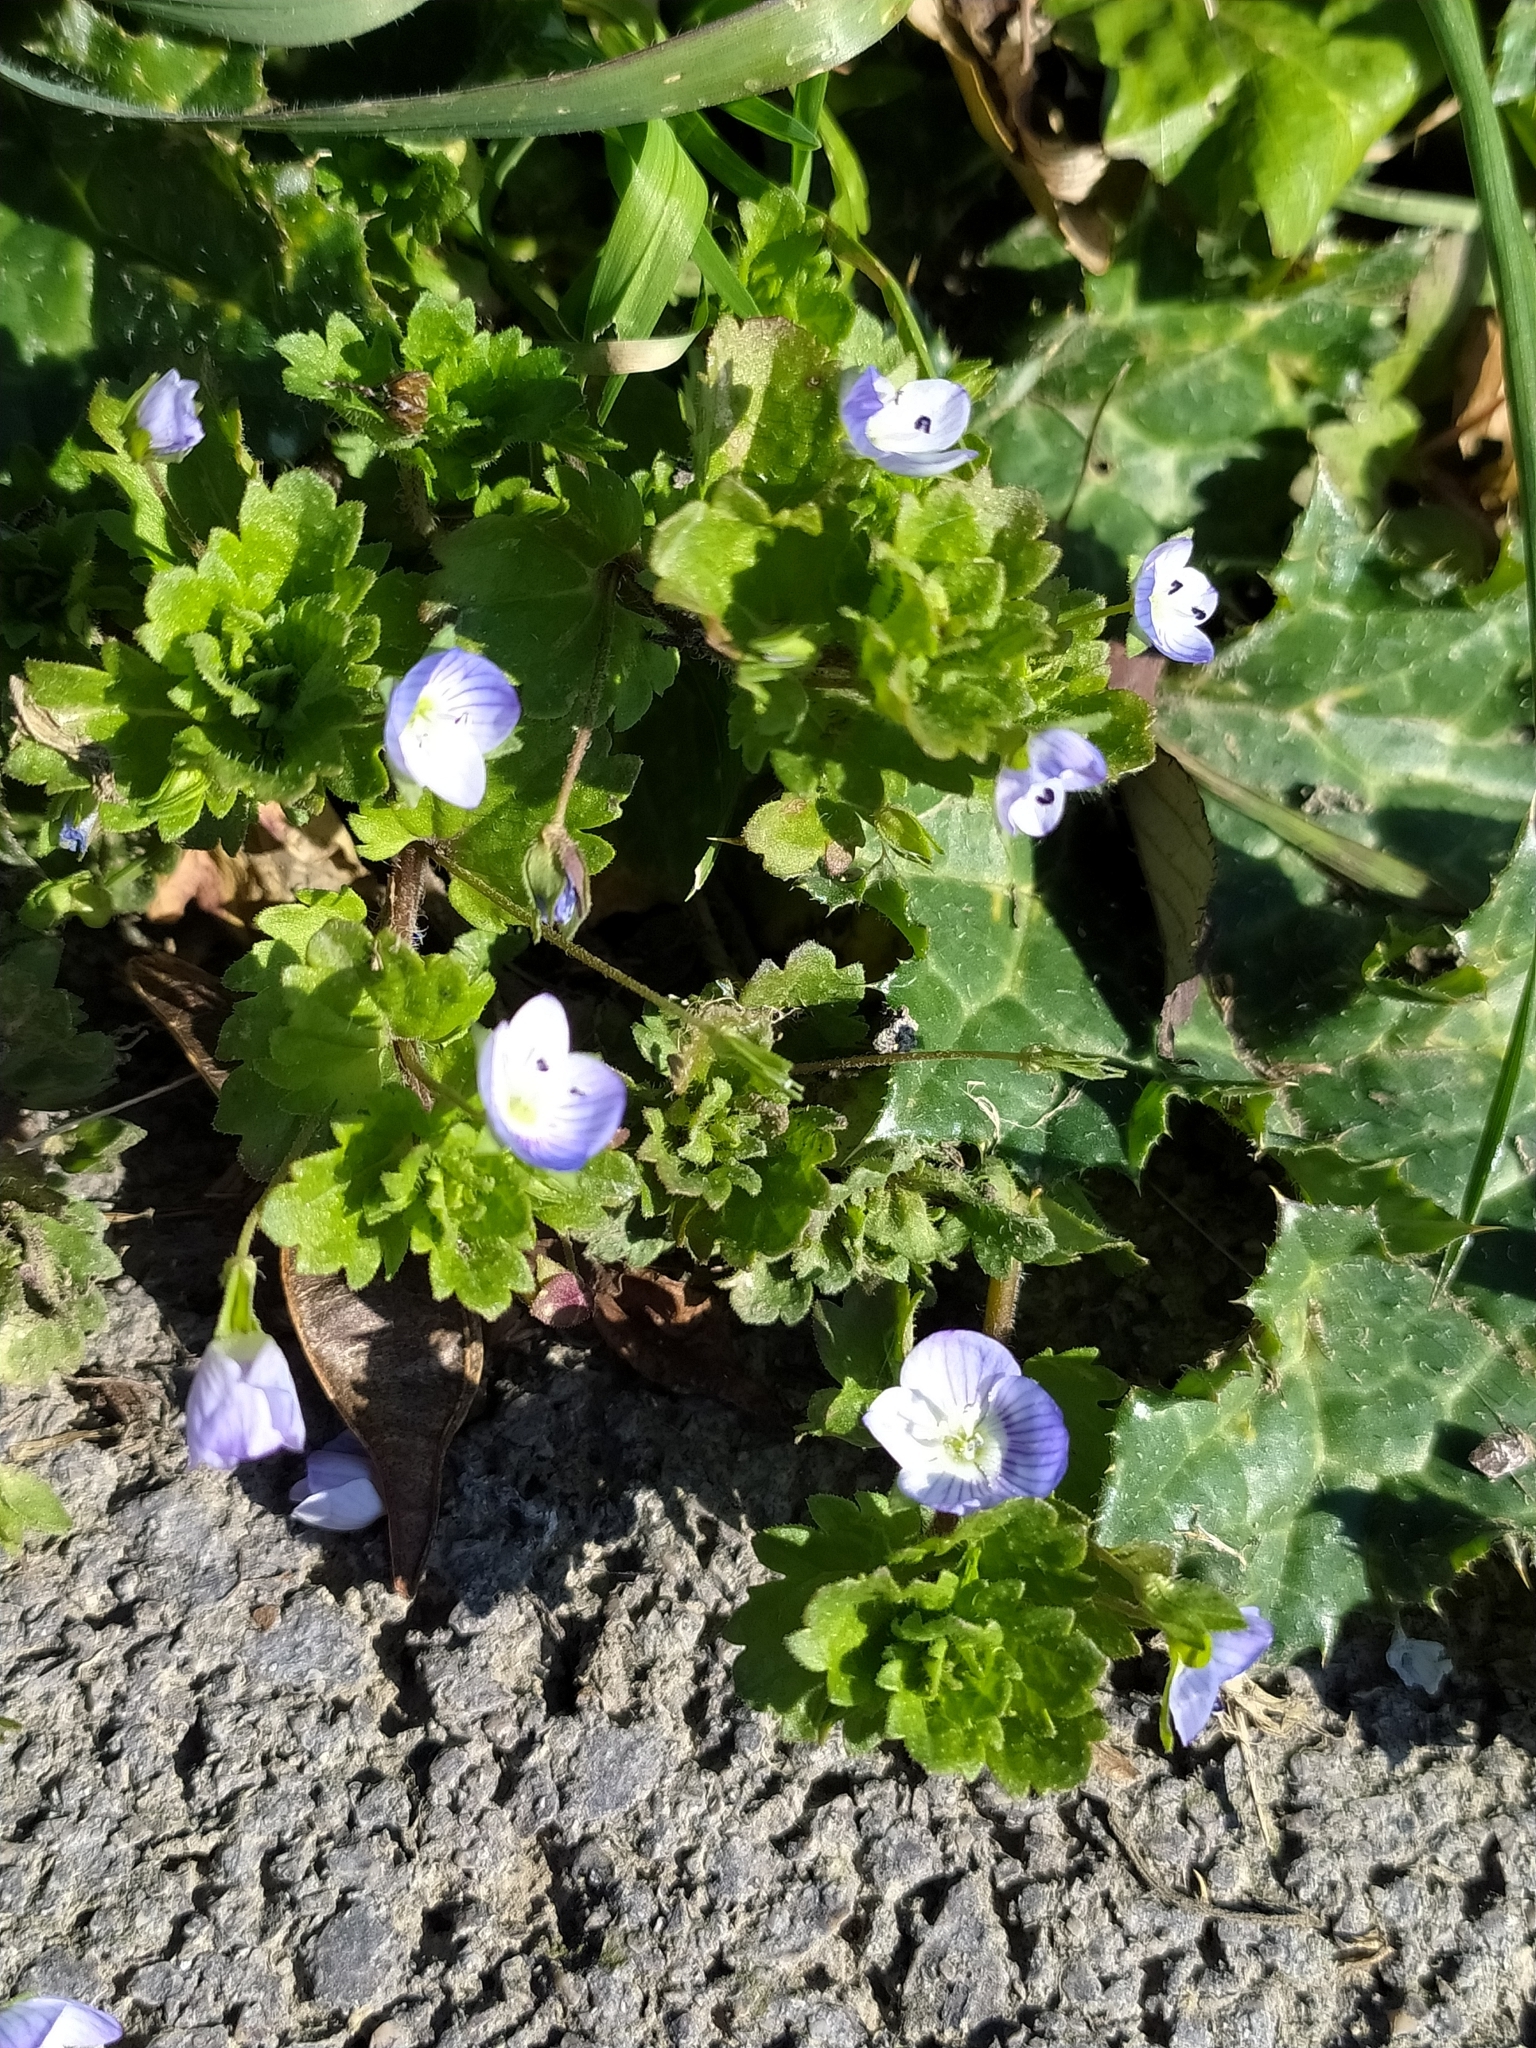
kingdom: Plantae
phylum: Tracheophyta
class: Magnoliopsida
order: Lamiales
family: Plantaginaceae
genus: Veronica
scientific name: Veronica persica
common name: Common field-speedwell
